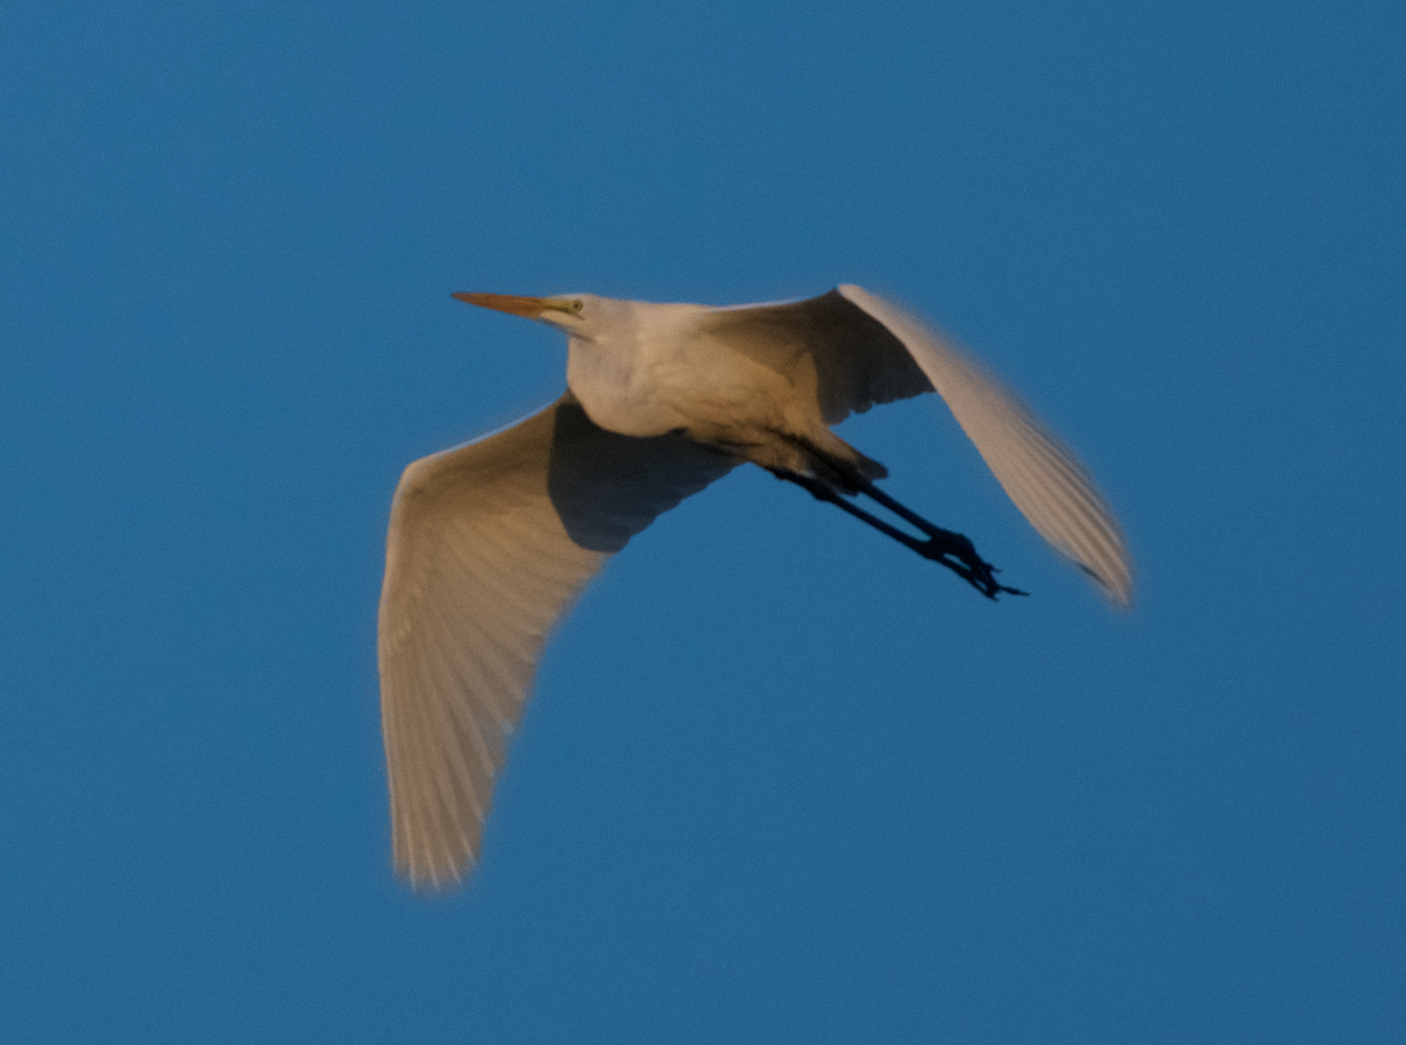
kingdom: Animalia
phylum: Chordata
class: Aves
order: Pelecaniformes
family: Ardeidae
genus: Ardea
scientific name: Ardea alba
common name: Great egret
